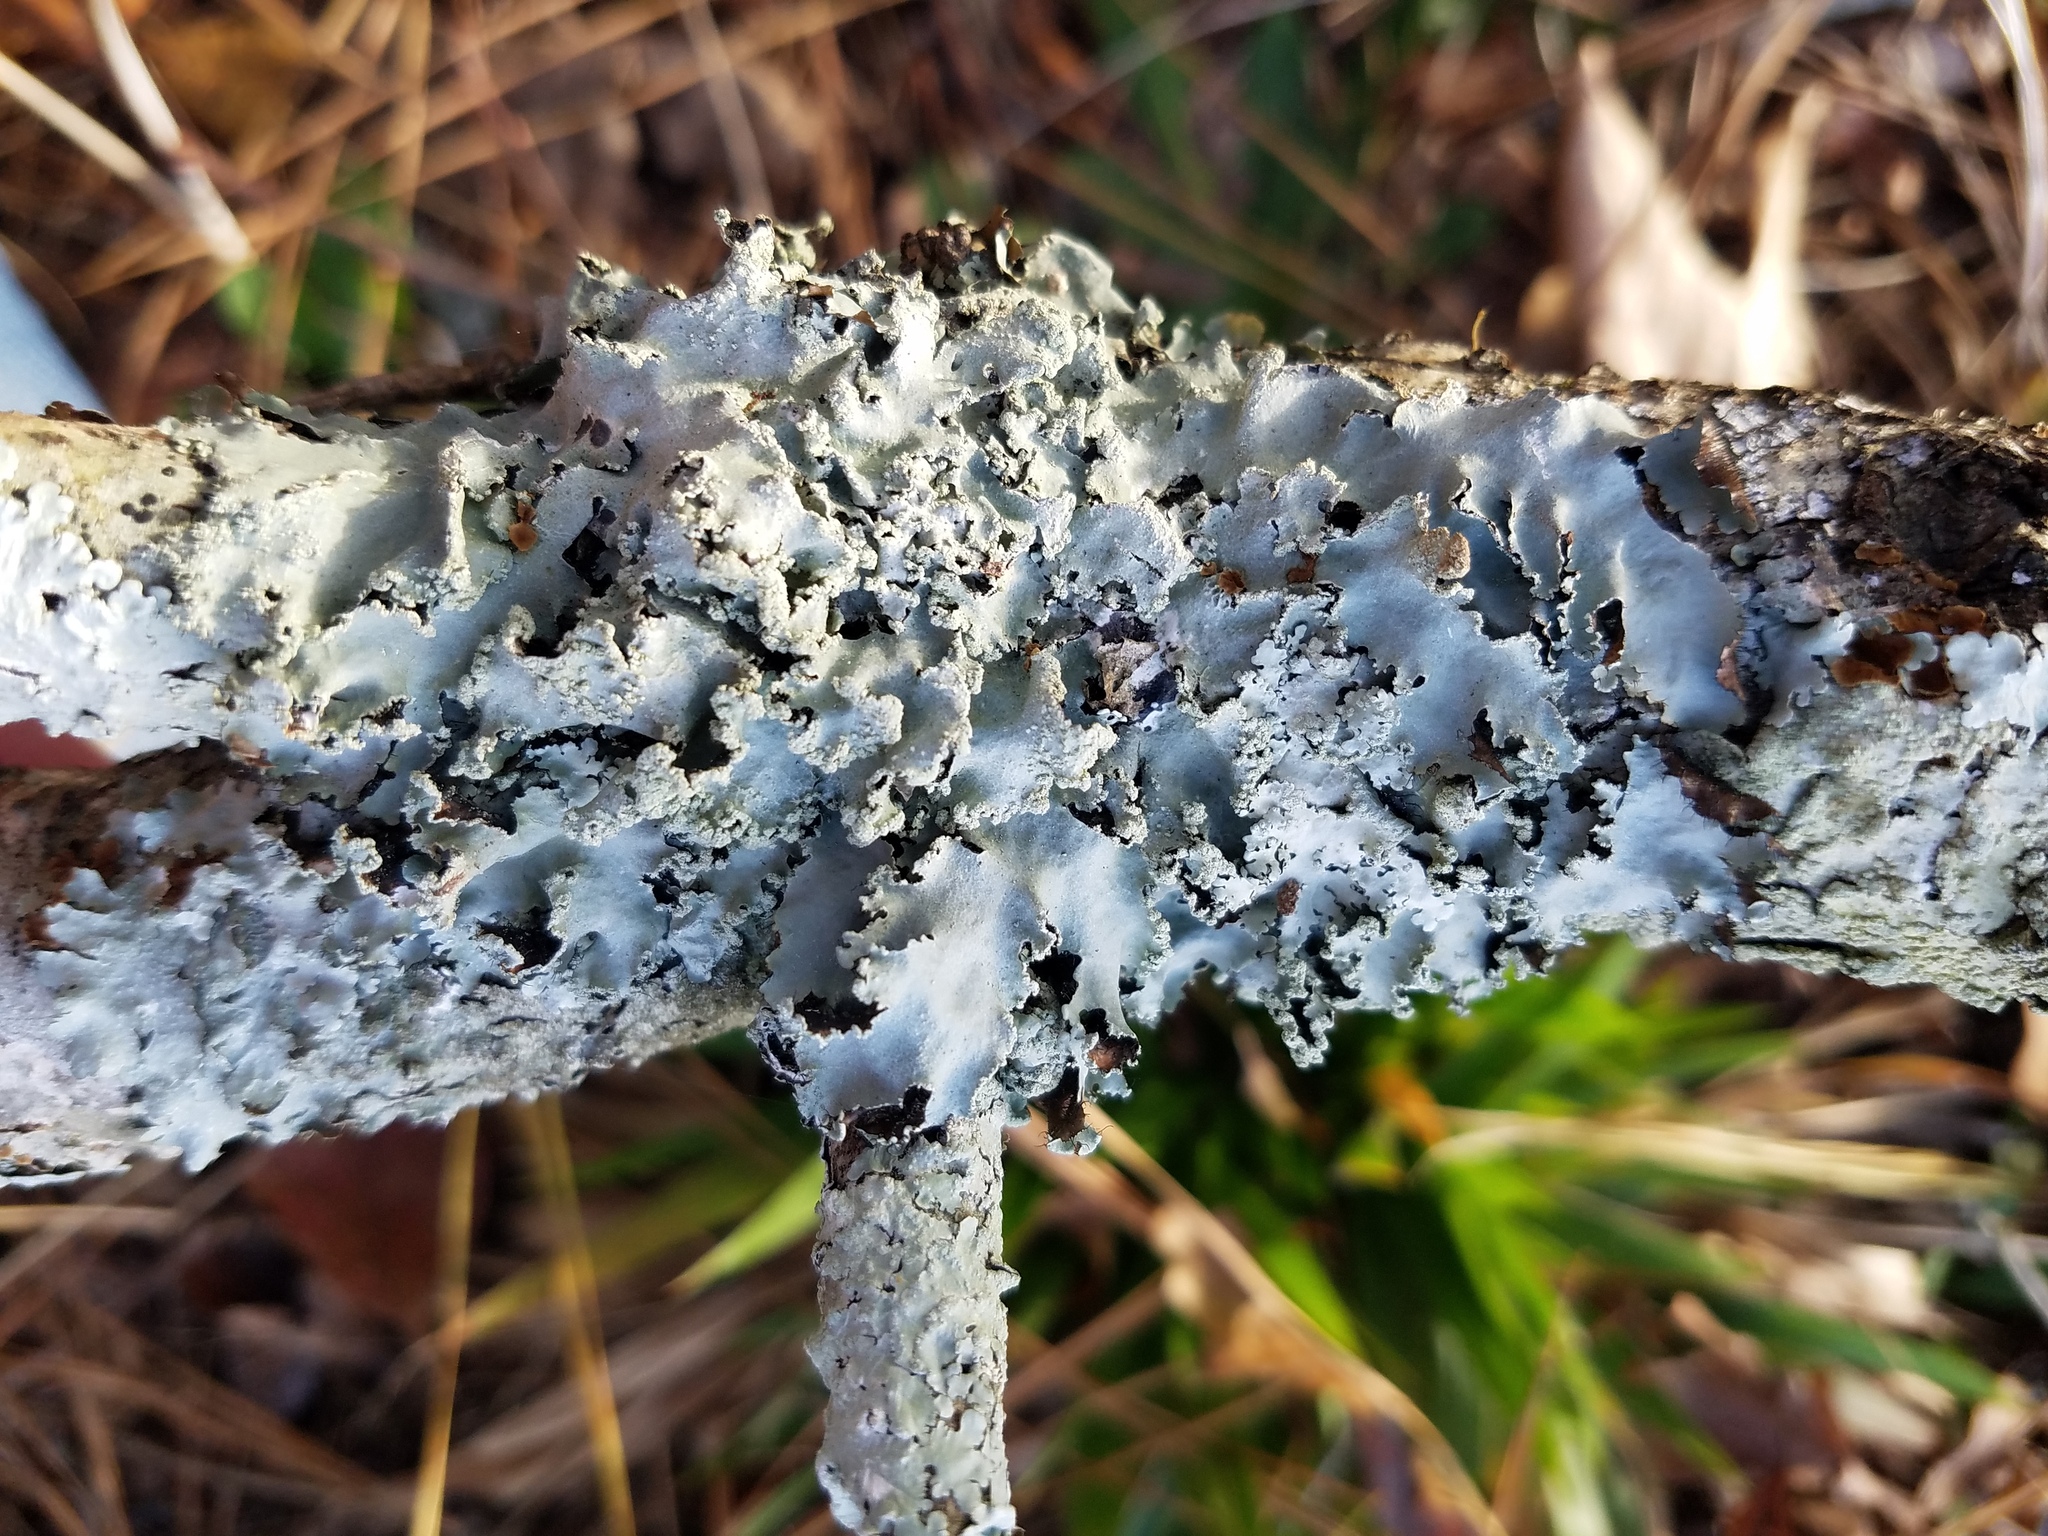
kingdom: Fungi
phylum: Ascomycota
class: Lecanoromycetes
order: Lecanorales
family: Parmeliaceae
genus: Rimelia
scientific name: Rimelia subisidiosa
